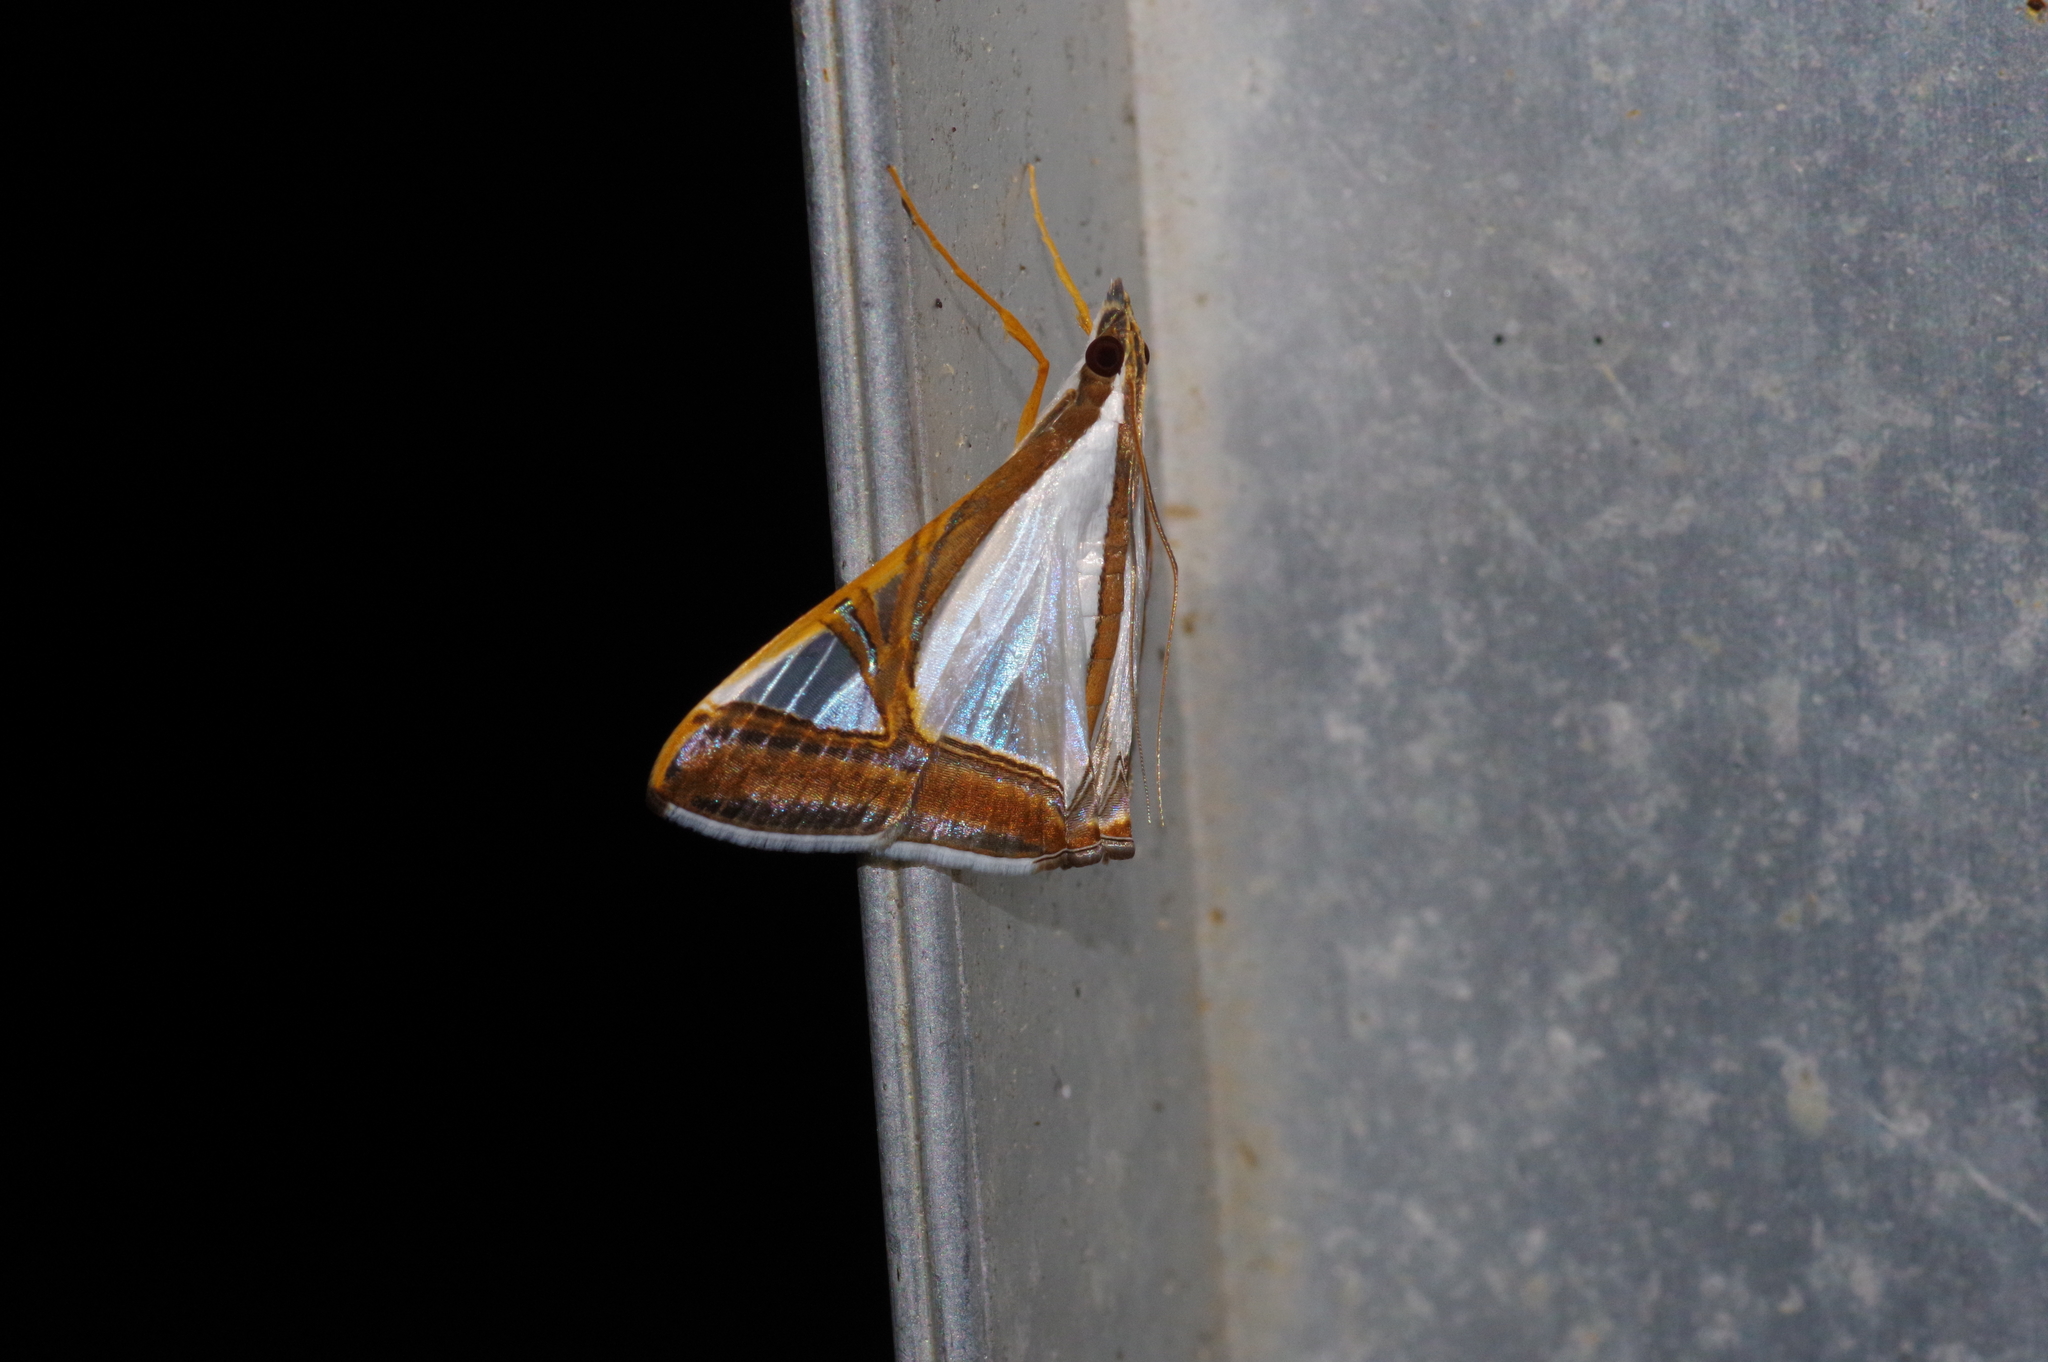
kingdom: Animalia
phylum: Arthropoda
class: Insecta
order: Lepidoptera
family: Crambidae
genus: Agrioglypta
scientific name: Agrioglypta eurytusalis
